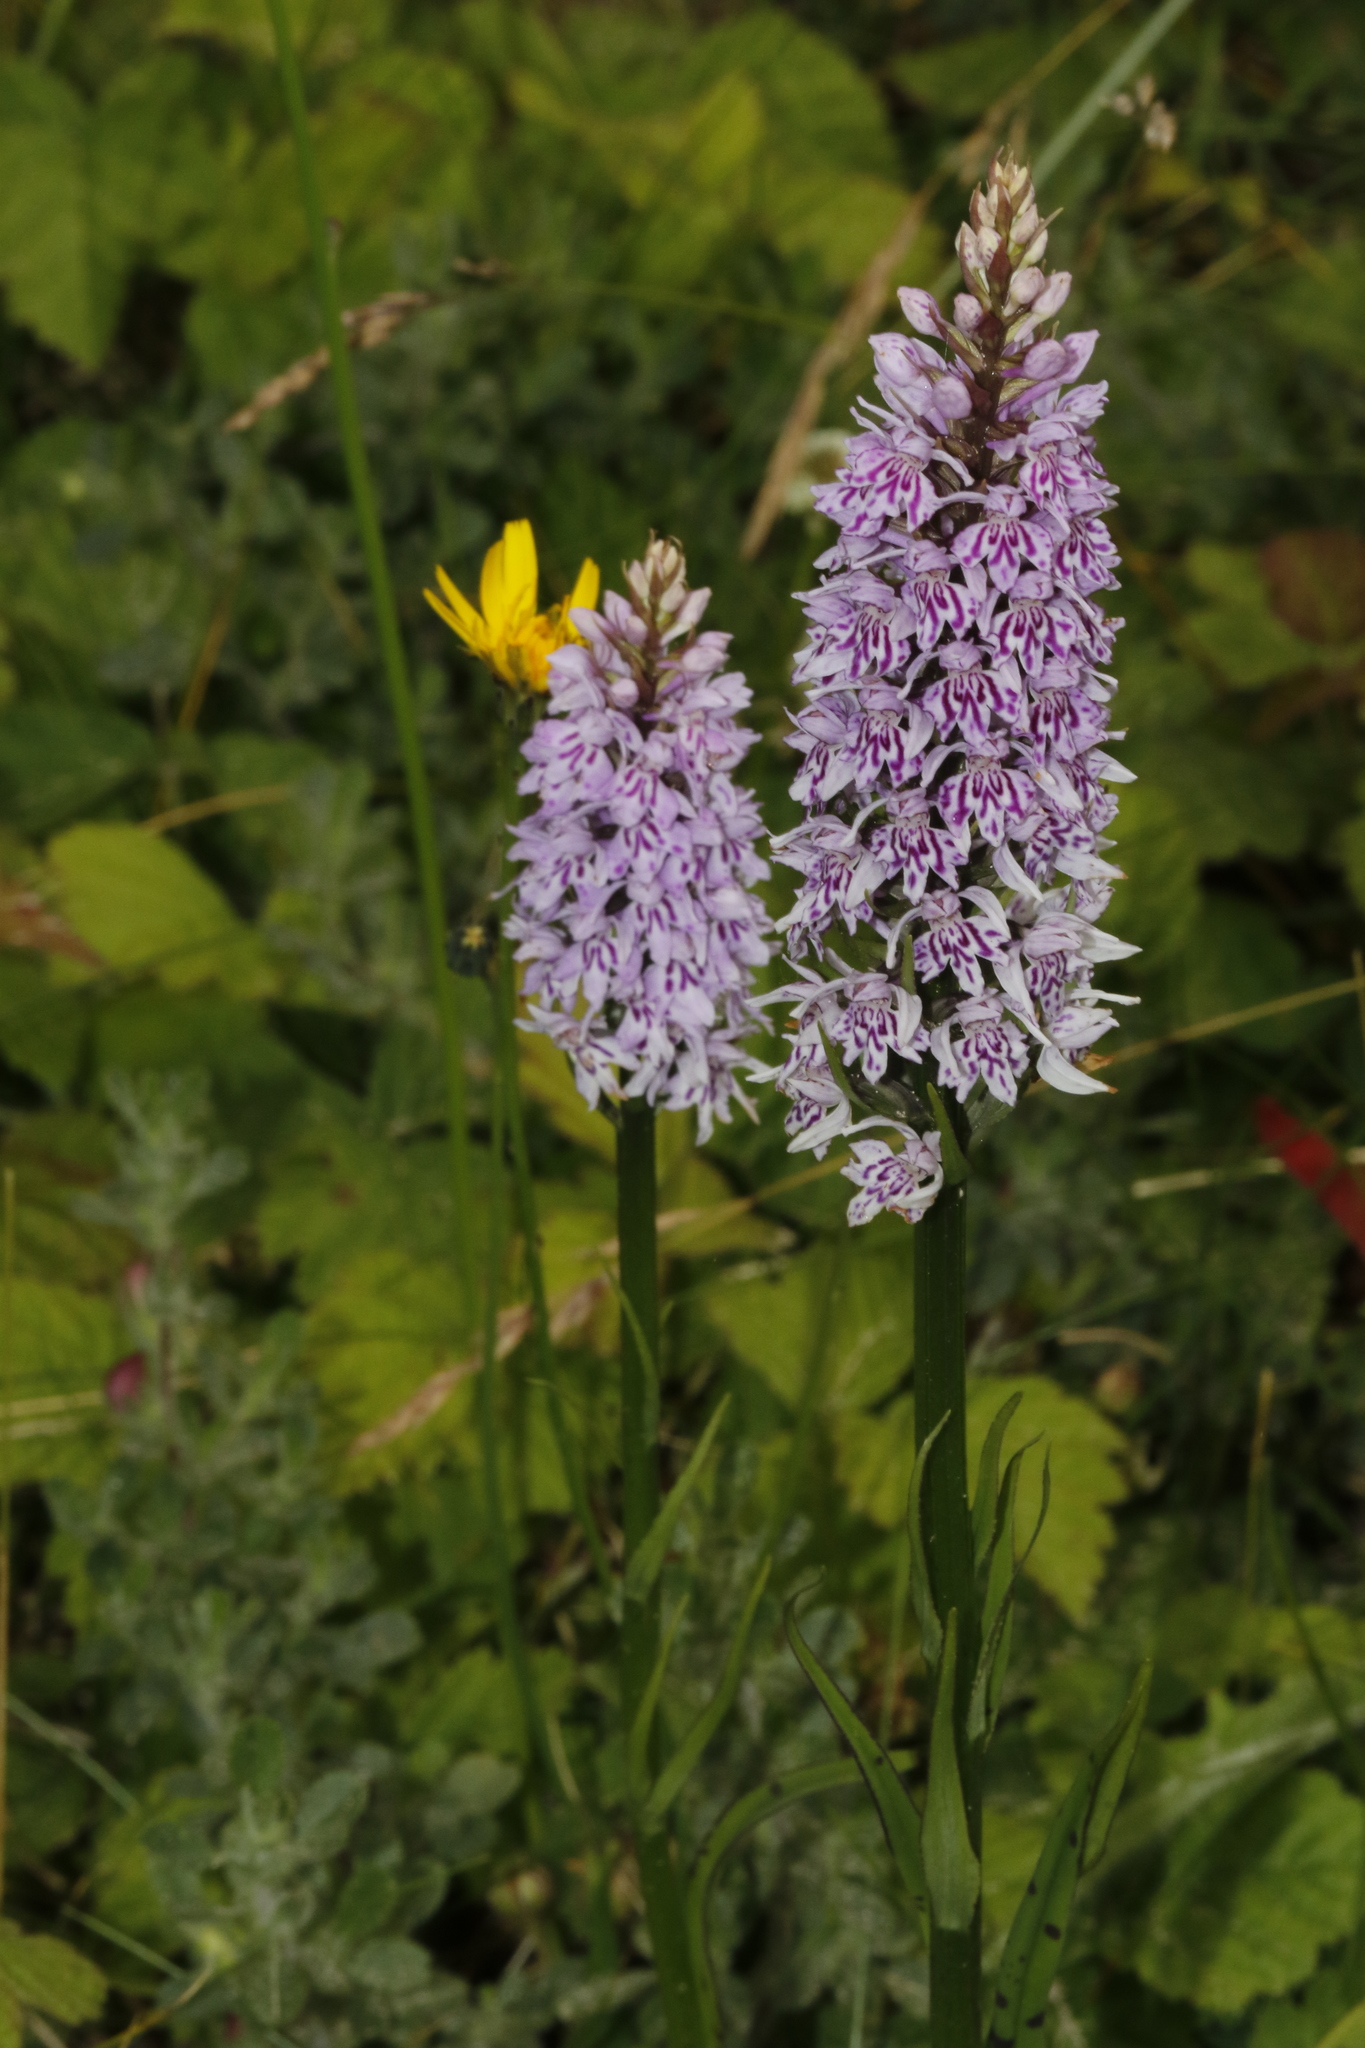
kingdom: Plantae
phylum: Tracheophyta
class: Liliopsida
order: Asparagales
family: Orchidaceae
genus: Dactylorhiza
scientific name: Dactylorhiza maculata
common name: Heath spotted-orchid
